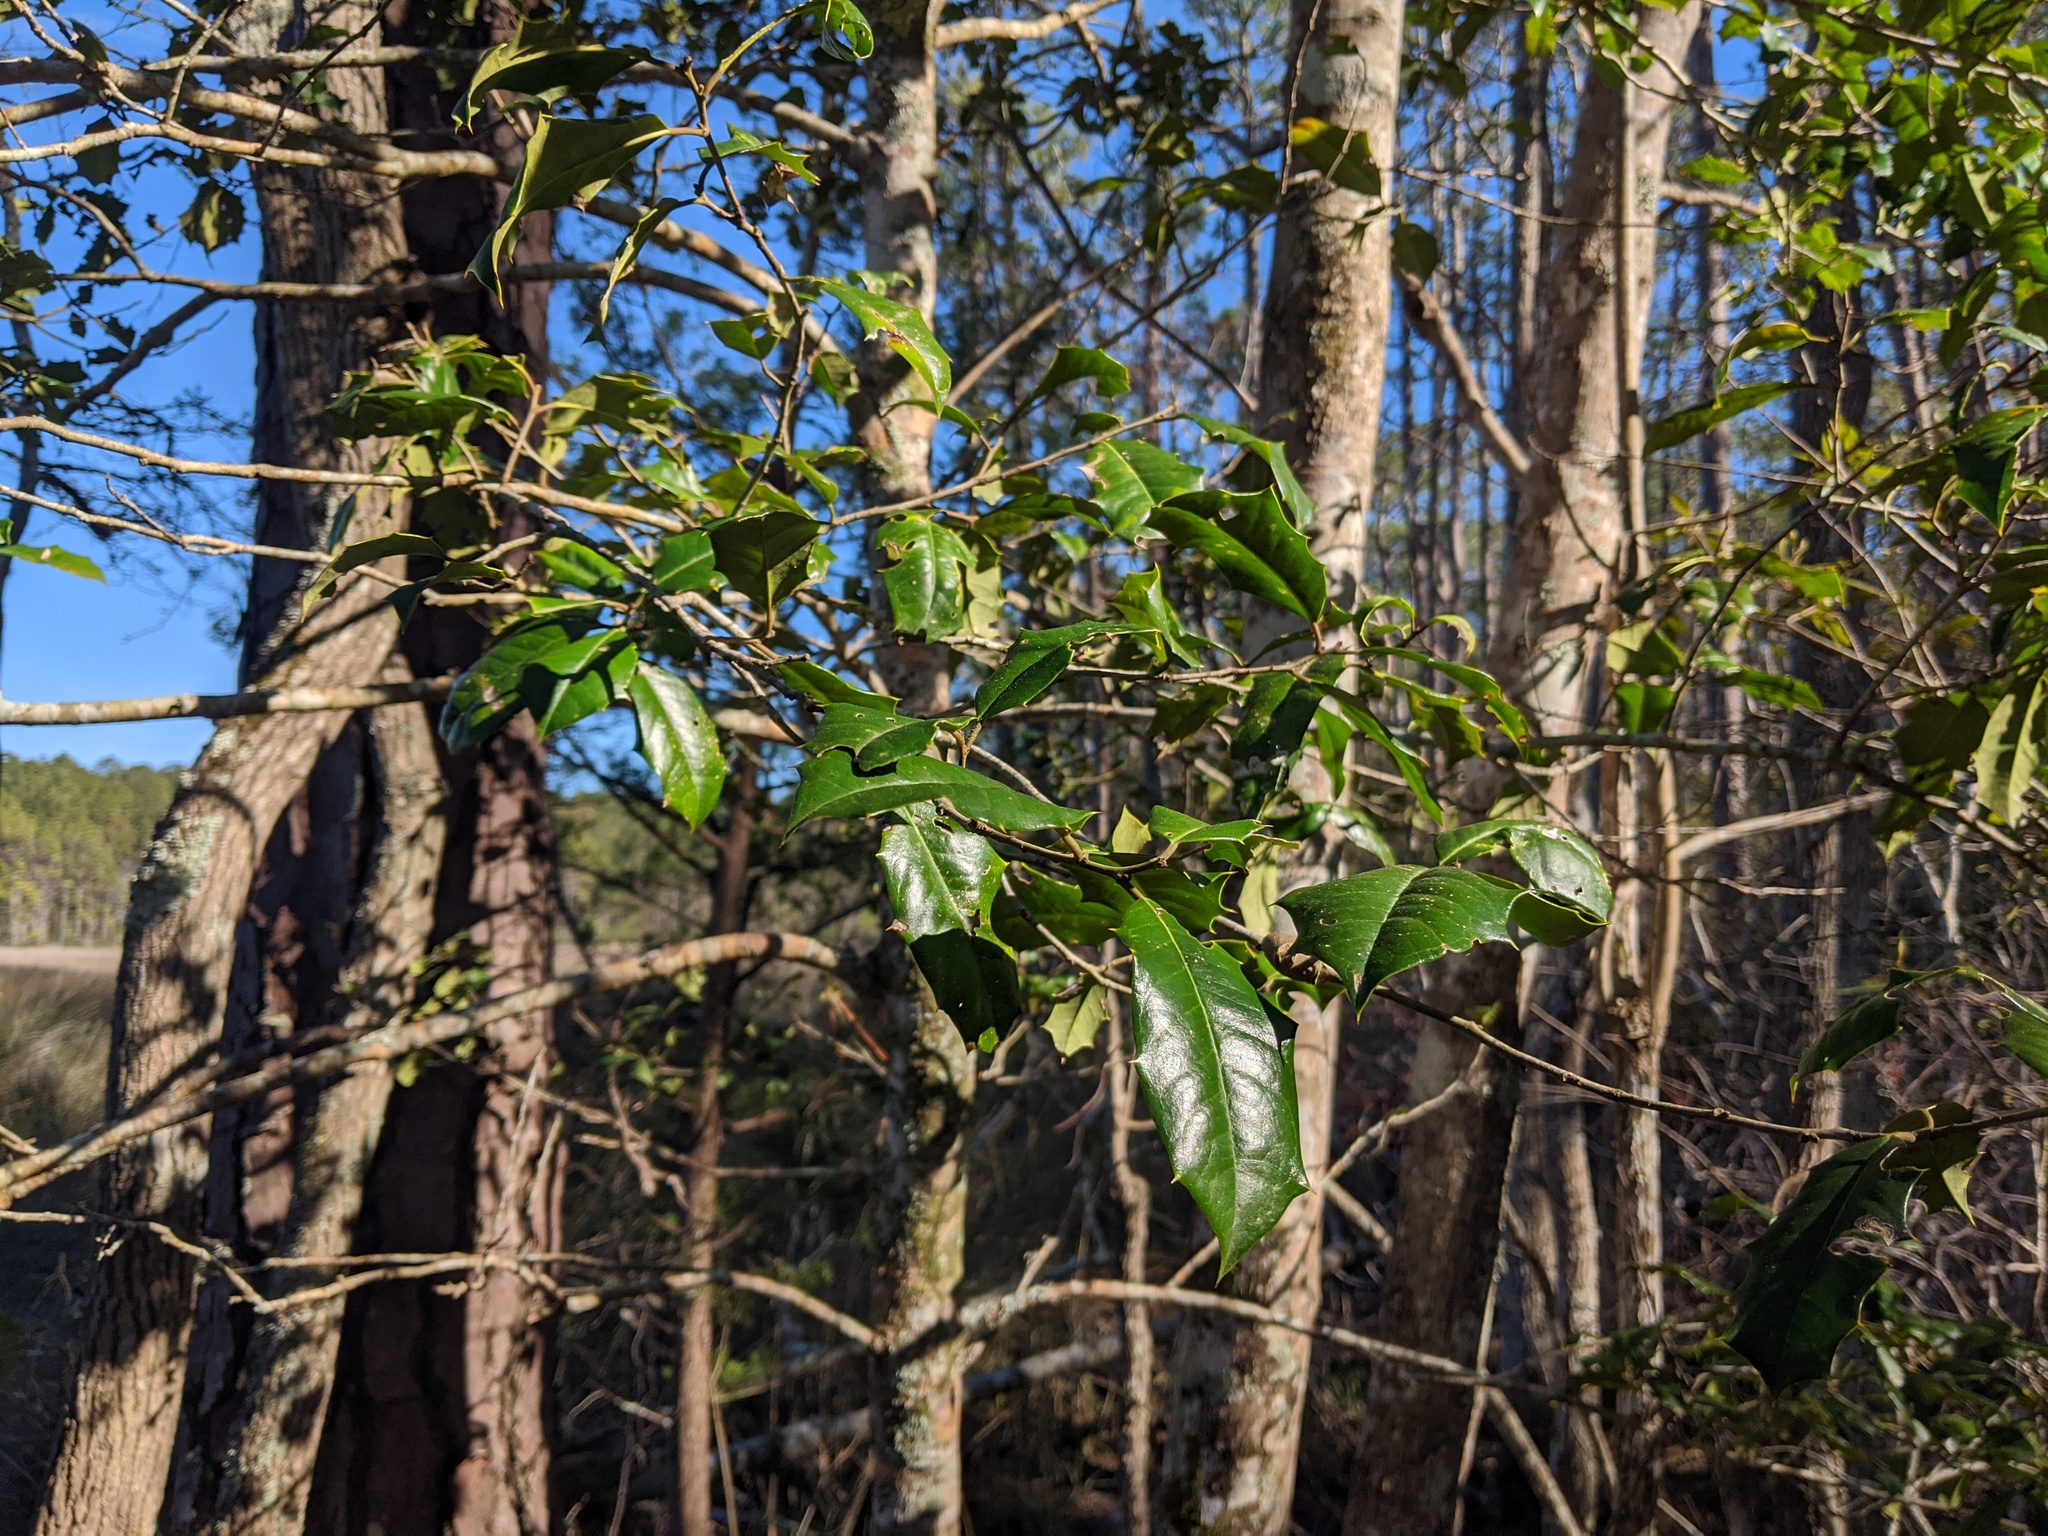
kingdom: Plantae
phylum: Tracheophyta
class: Magnoliopsida
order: Aquifoliales
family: Aquifoliaceae
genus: Ilex
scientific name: Ilex opaca
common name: American holly
